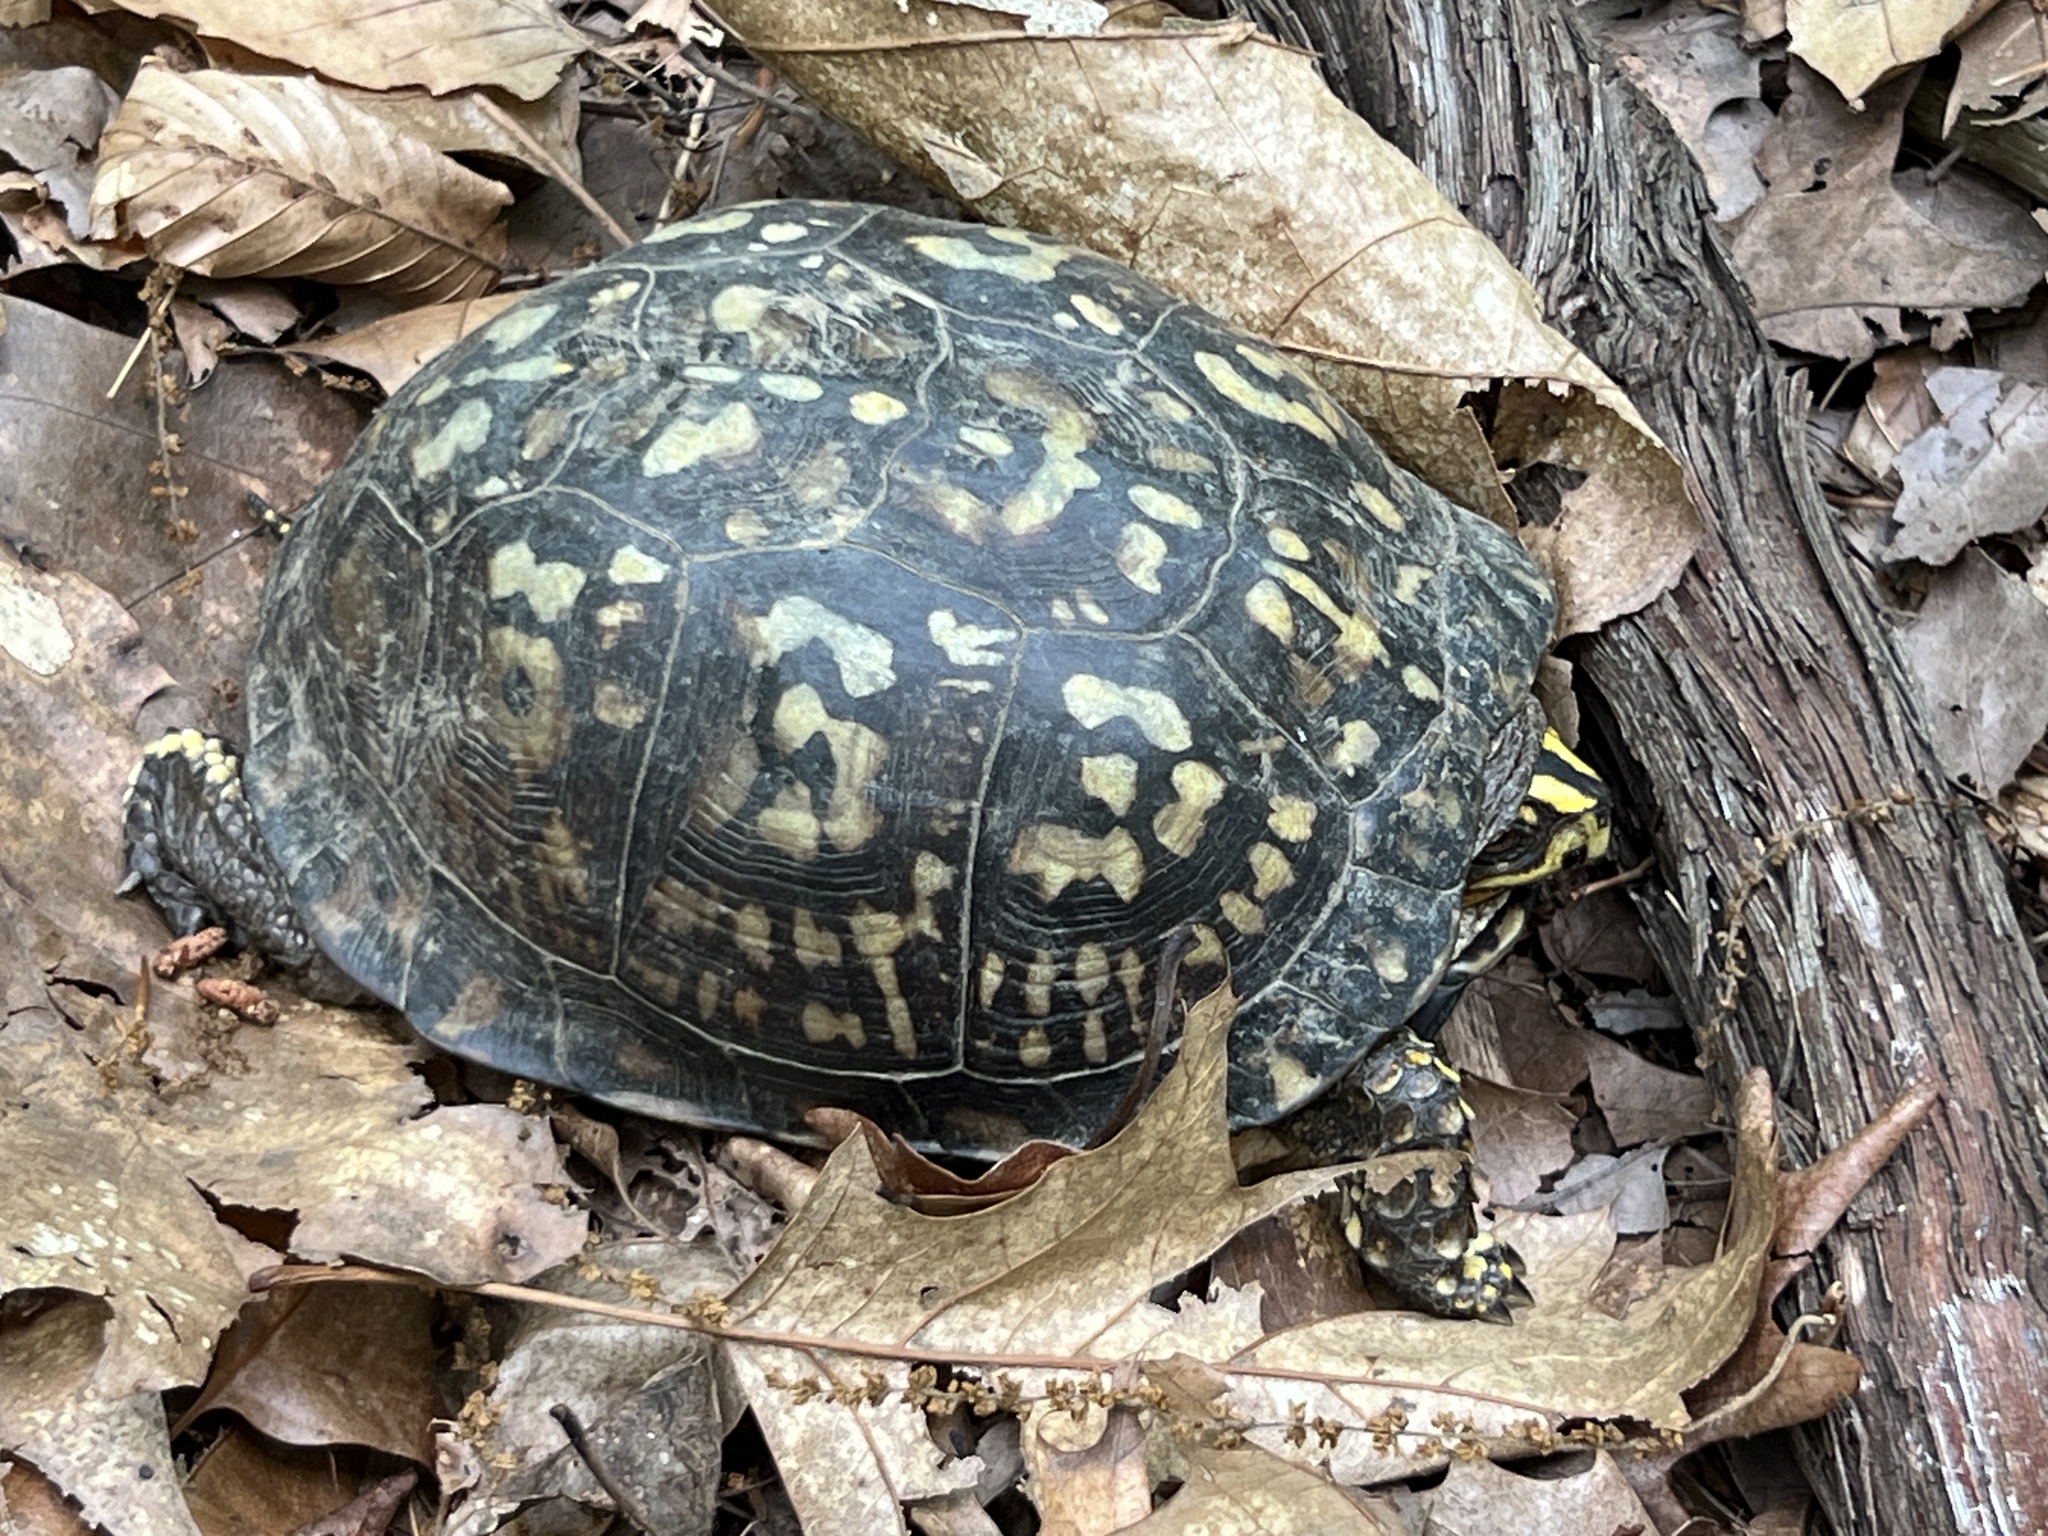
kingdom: Animalia
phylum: Chordata
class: Testudines
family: Emydidae
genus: Terrapene
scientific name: Terrapene carolina
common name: Common box turtle
